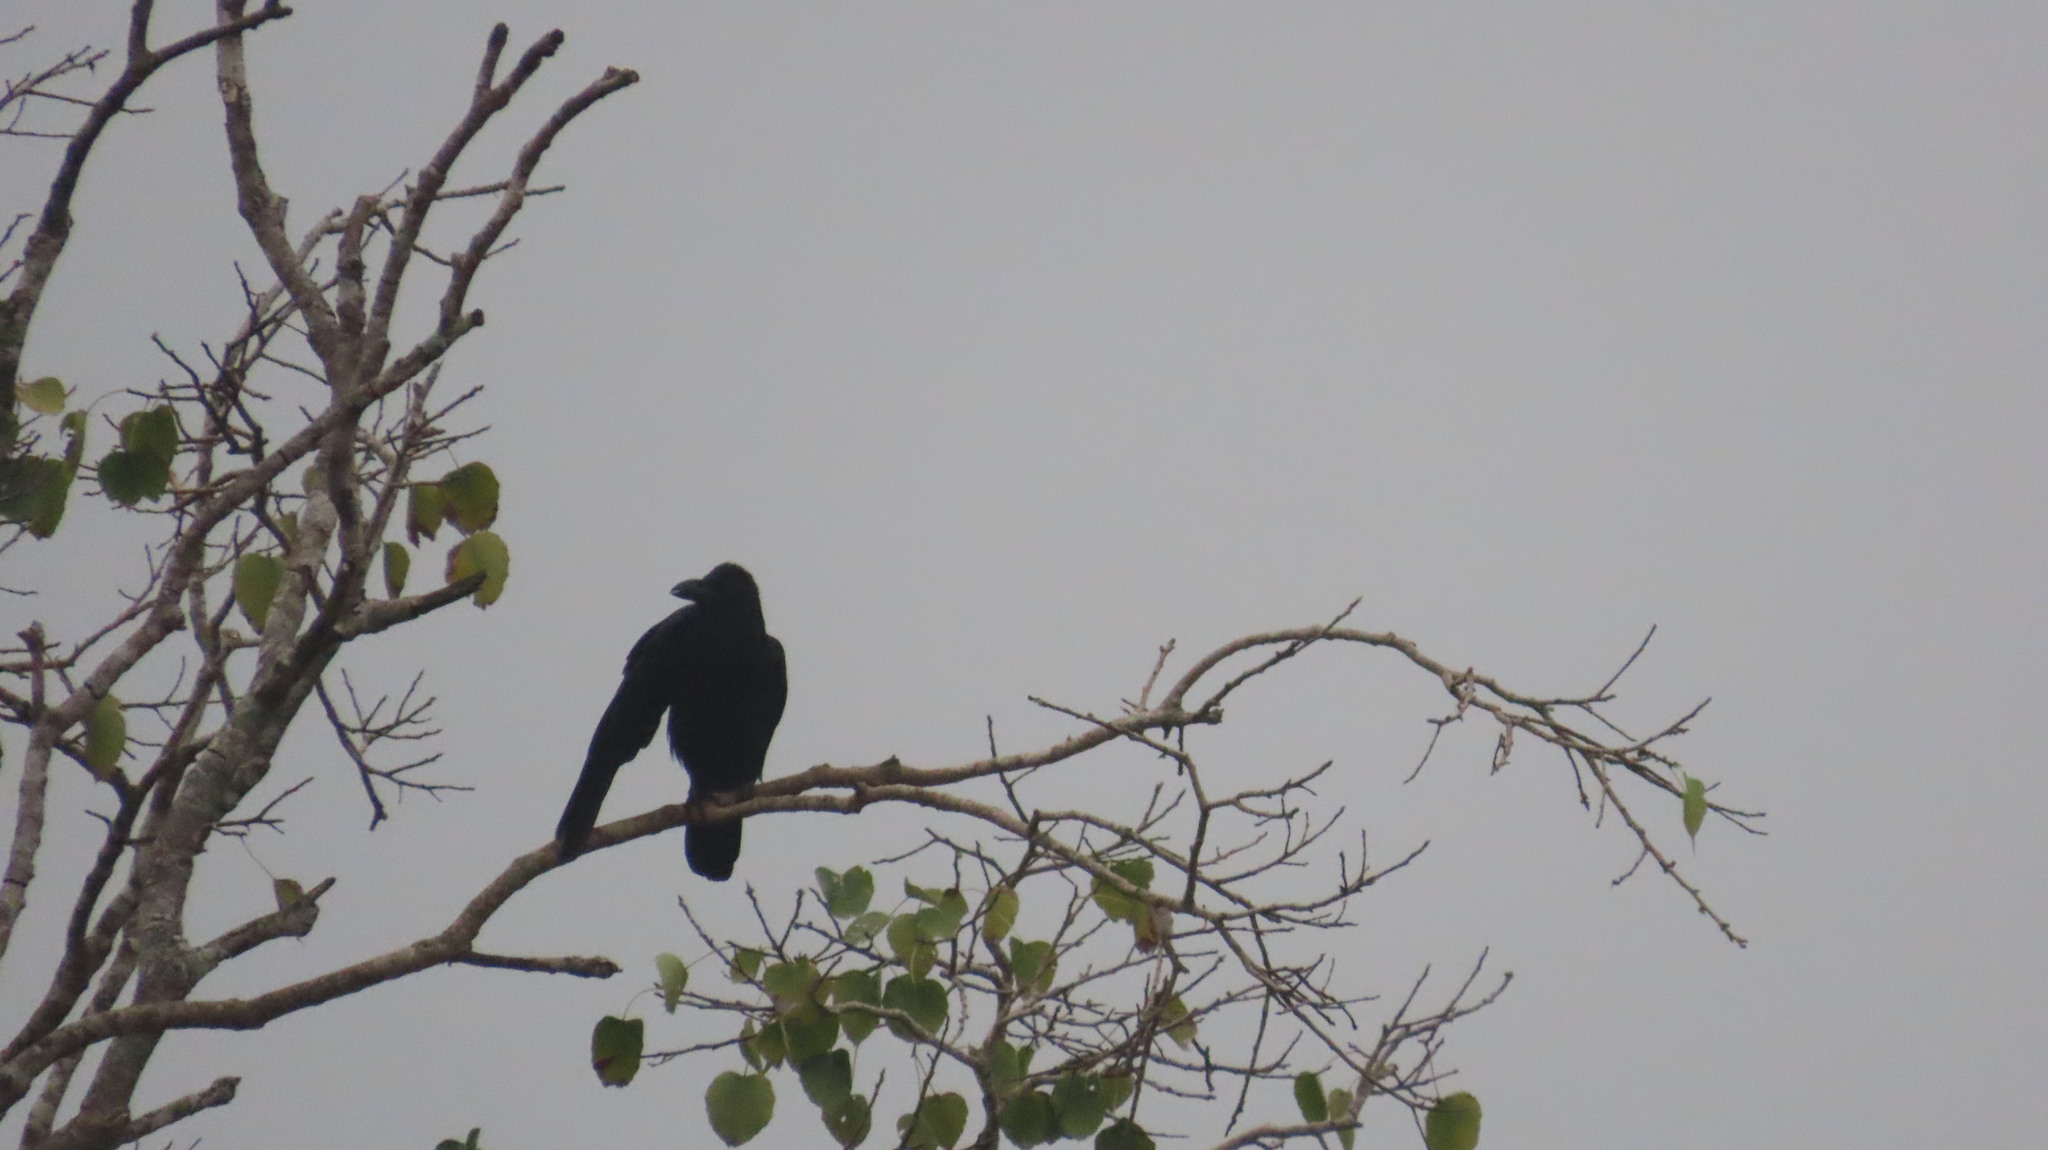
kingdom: Animalia
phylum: Chordata
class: Aves
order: Passeriformes
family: Corvidae
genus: Corvus
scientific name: Corvus macrorhynchos
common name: Large-billed crow
